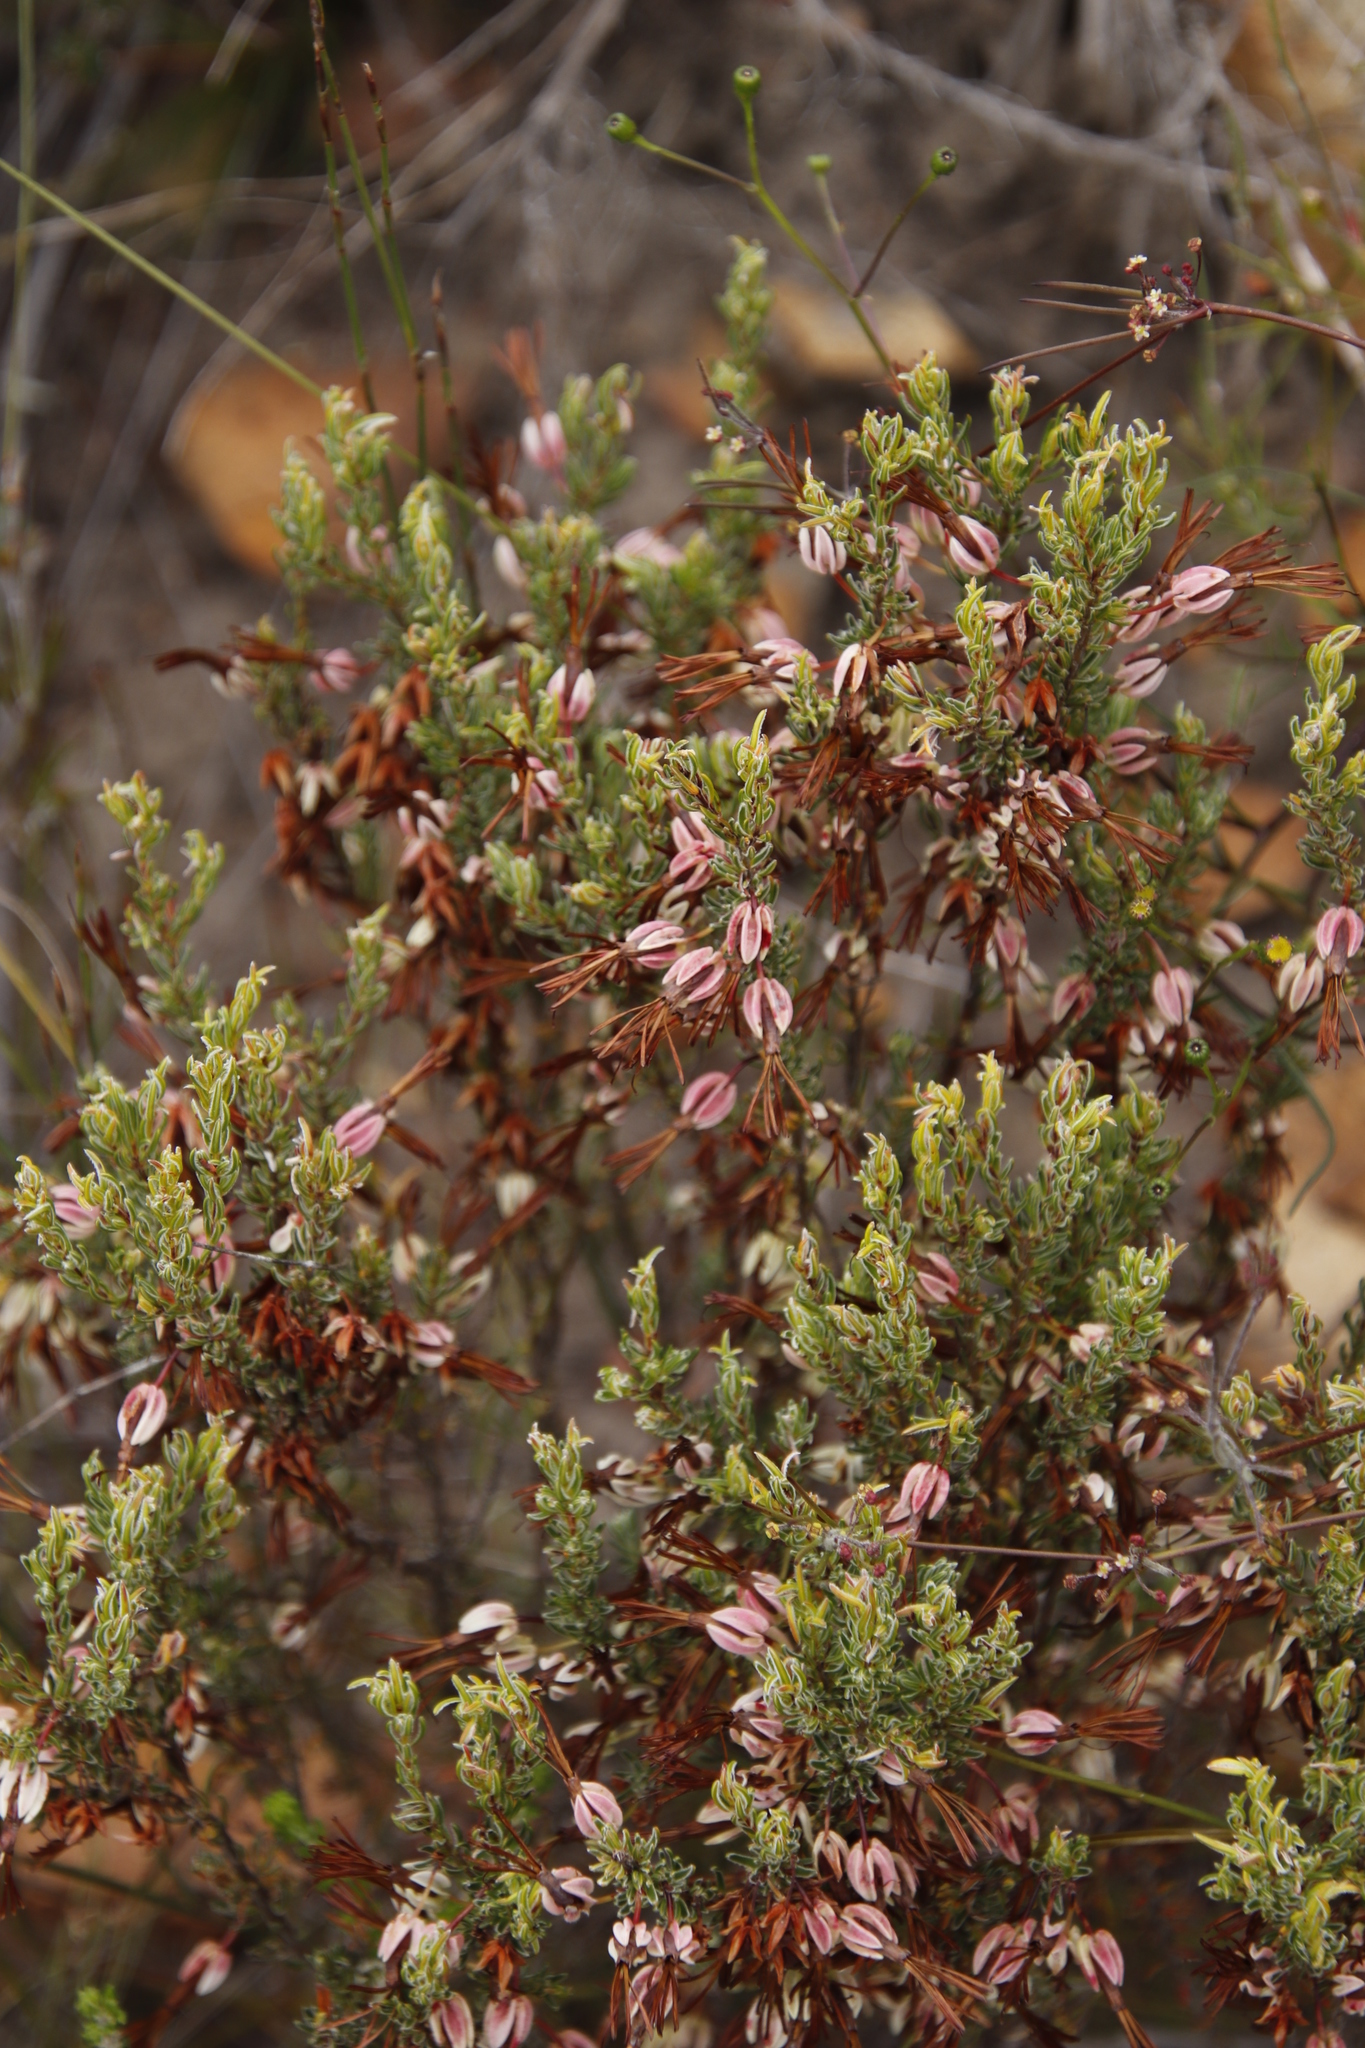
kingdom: Plantae
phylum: Tracheophyta
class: Magnoliopsida
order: Ericales
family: Ericaceae
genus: Erica
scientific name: Erica plukenetii
